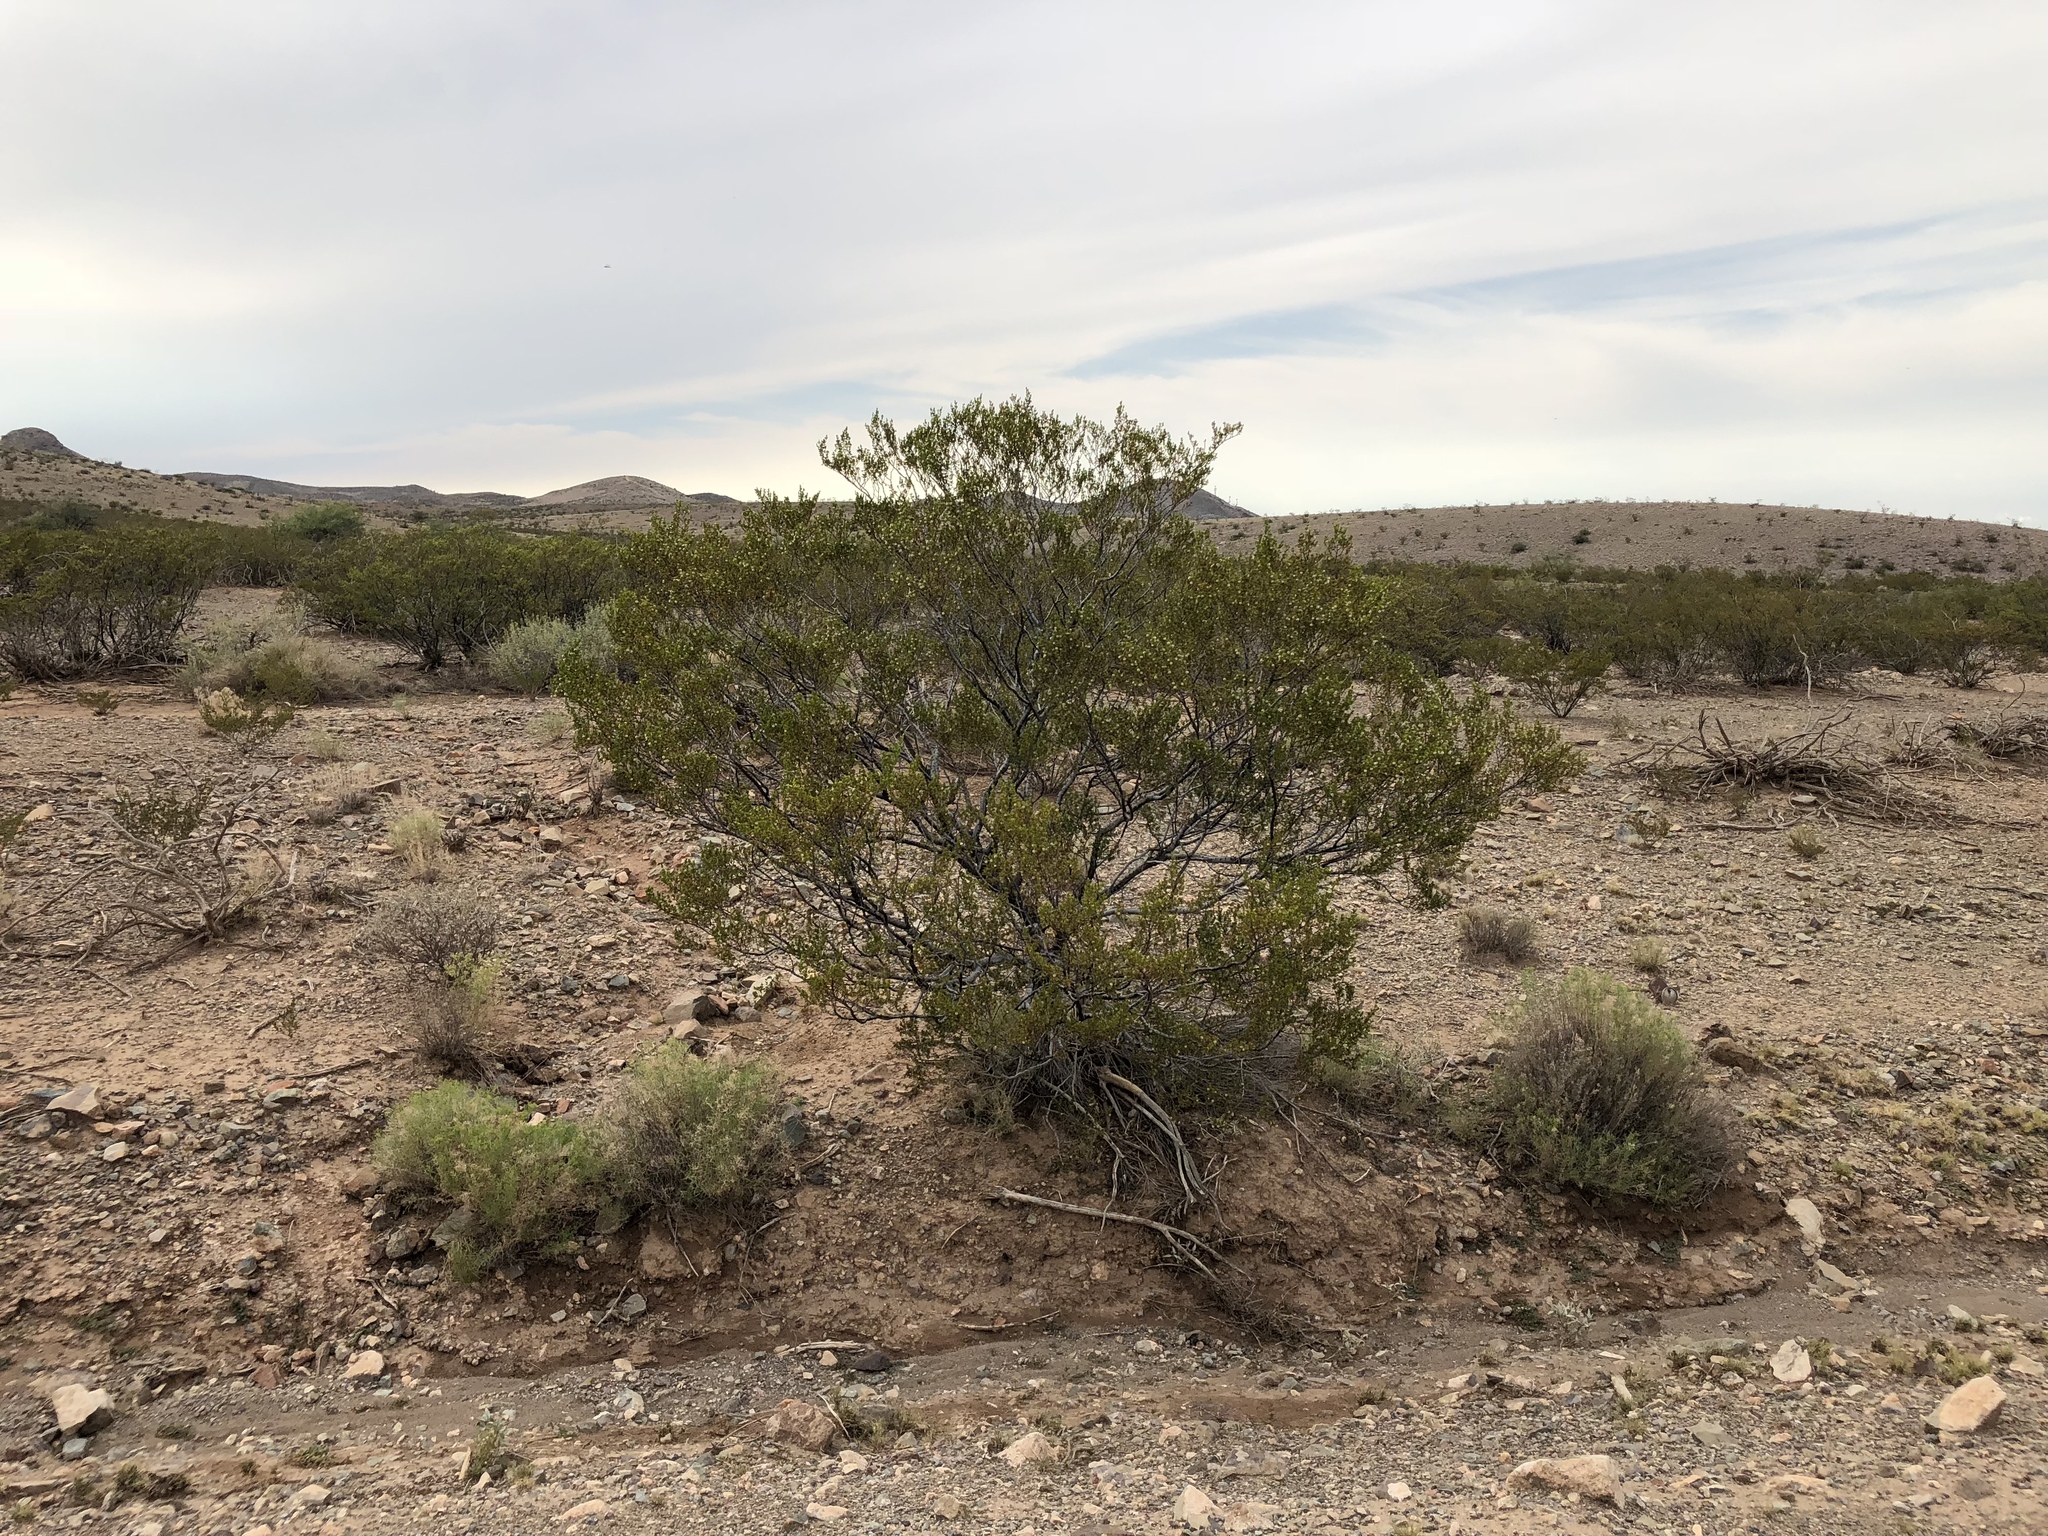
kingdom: Plantae
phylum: Tracheophyta
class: Magnoliopsida
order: Zygophyllales
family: Zygophyllaceae
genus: Larrea
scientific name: Larrea tridentata
